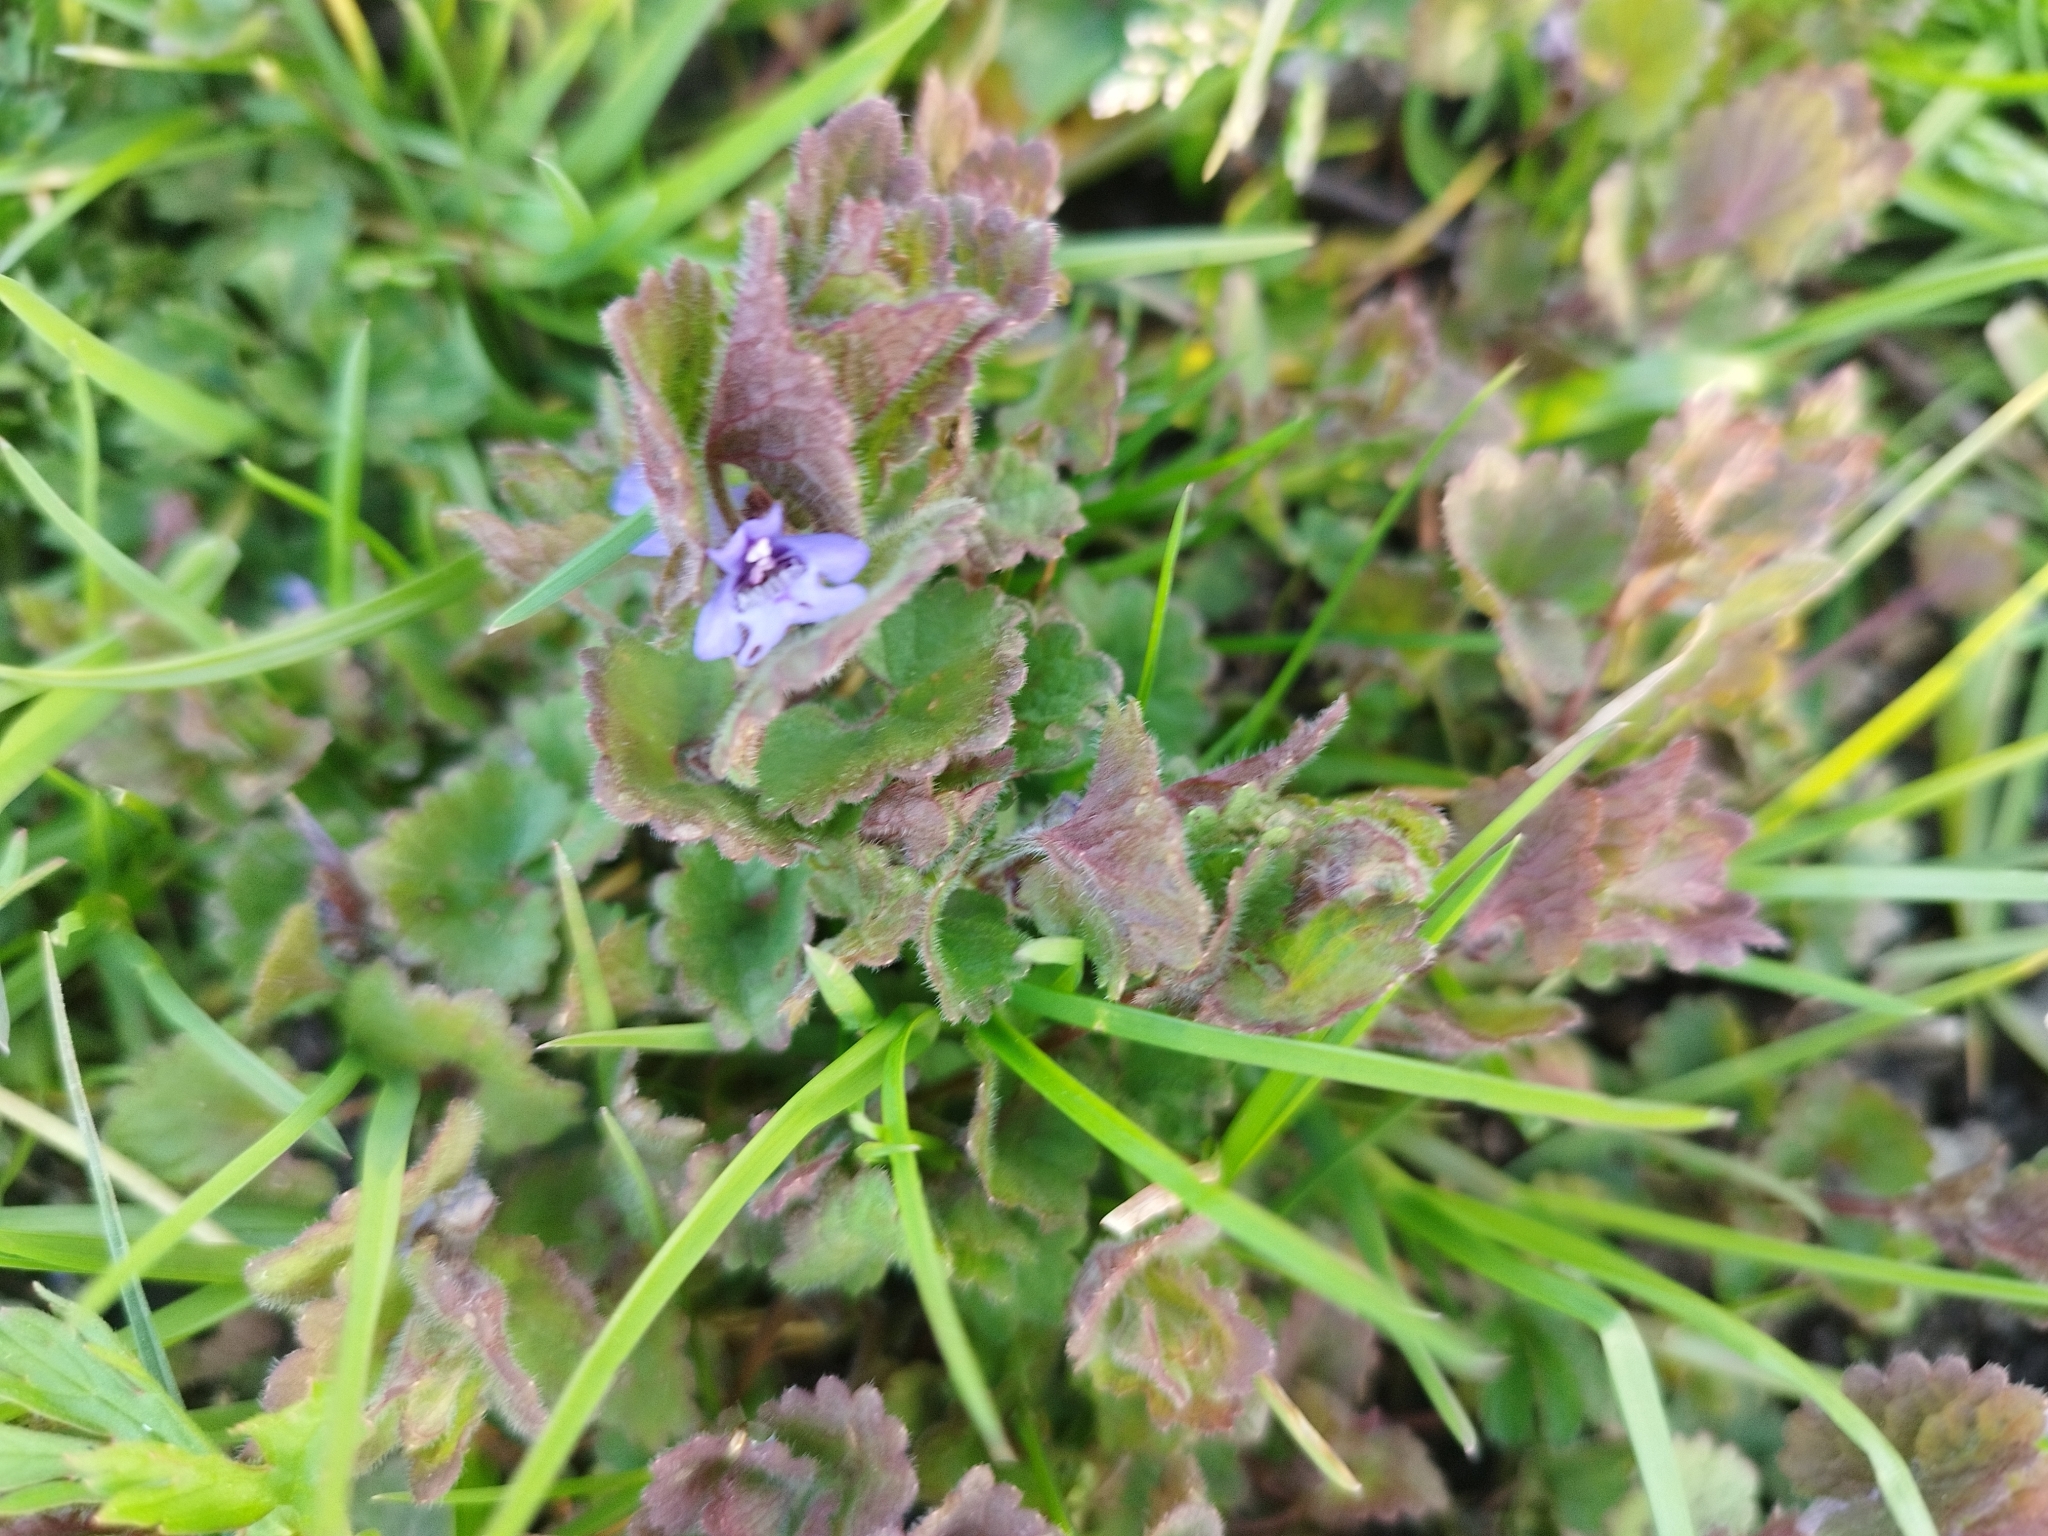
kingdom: Plantae
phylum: Tracheophyta
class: Magnoliopsida
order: Lamiales
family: Lamiaceae
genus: Glechoma
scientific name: Glechoma hederacea
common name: Ground ivy
